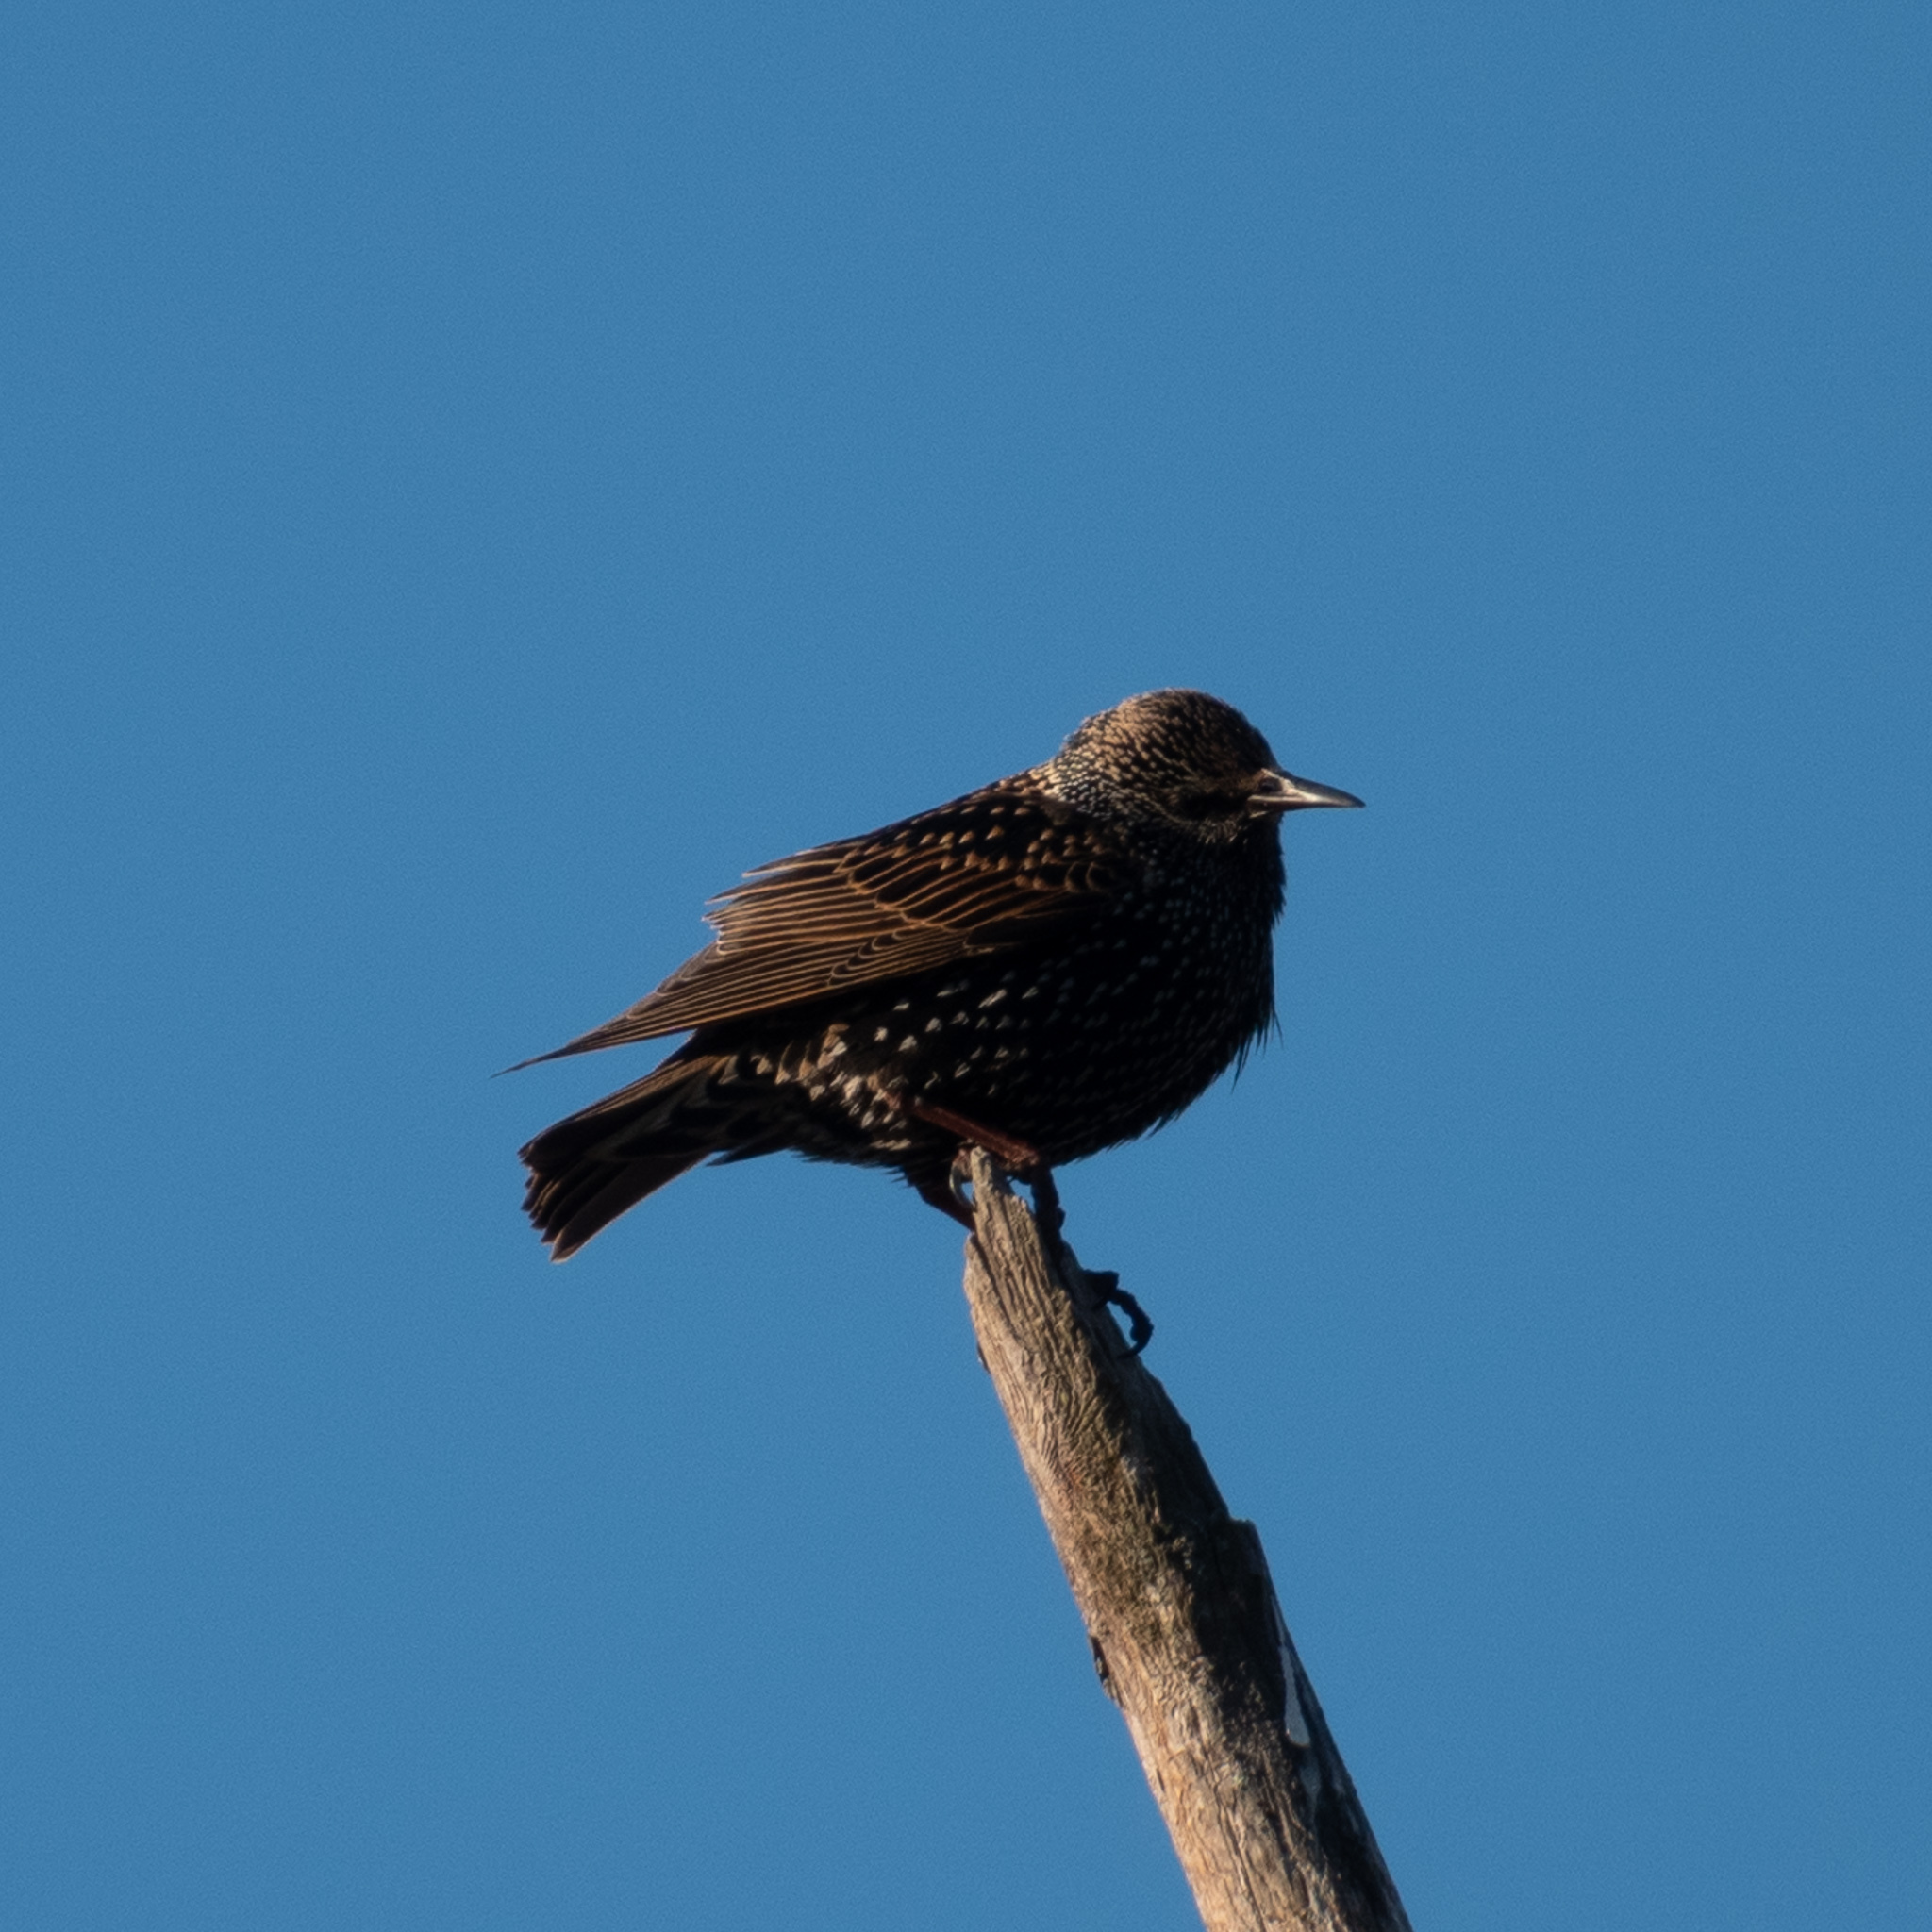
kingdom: Animalia
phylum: Chordata
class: Aves
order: Passeriformes
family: Sturnidae
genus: Sturnus
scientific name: Sturnus vulgaris
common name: Common starling
